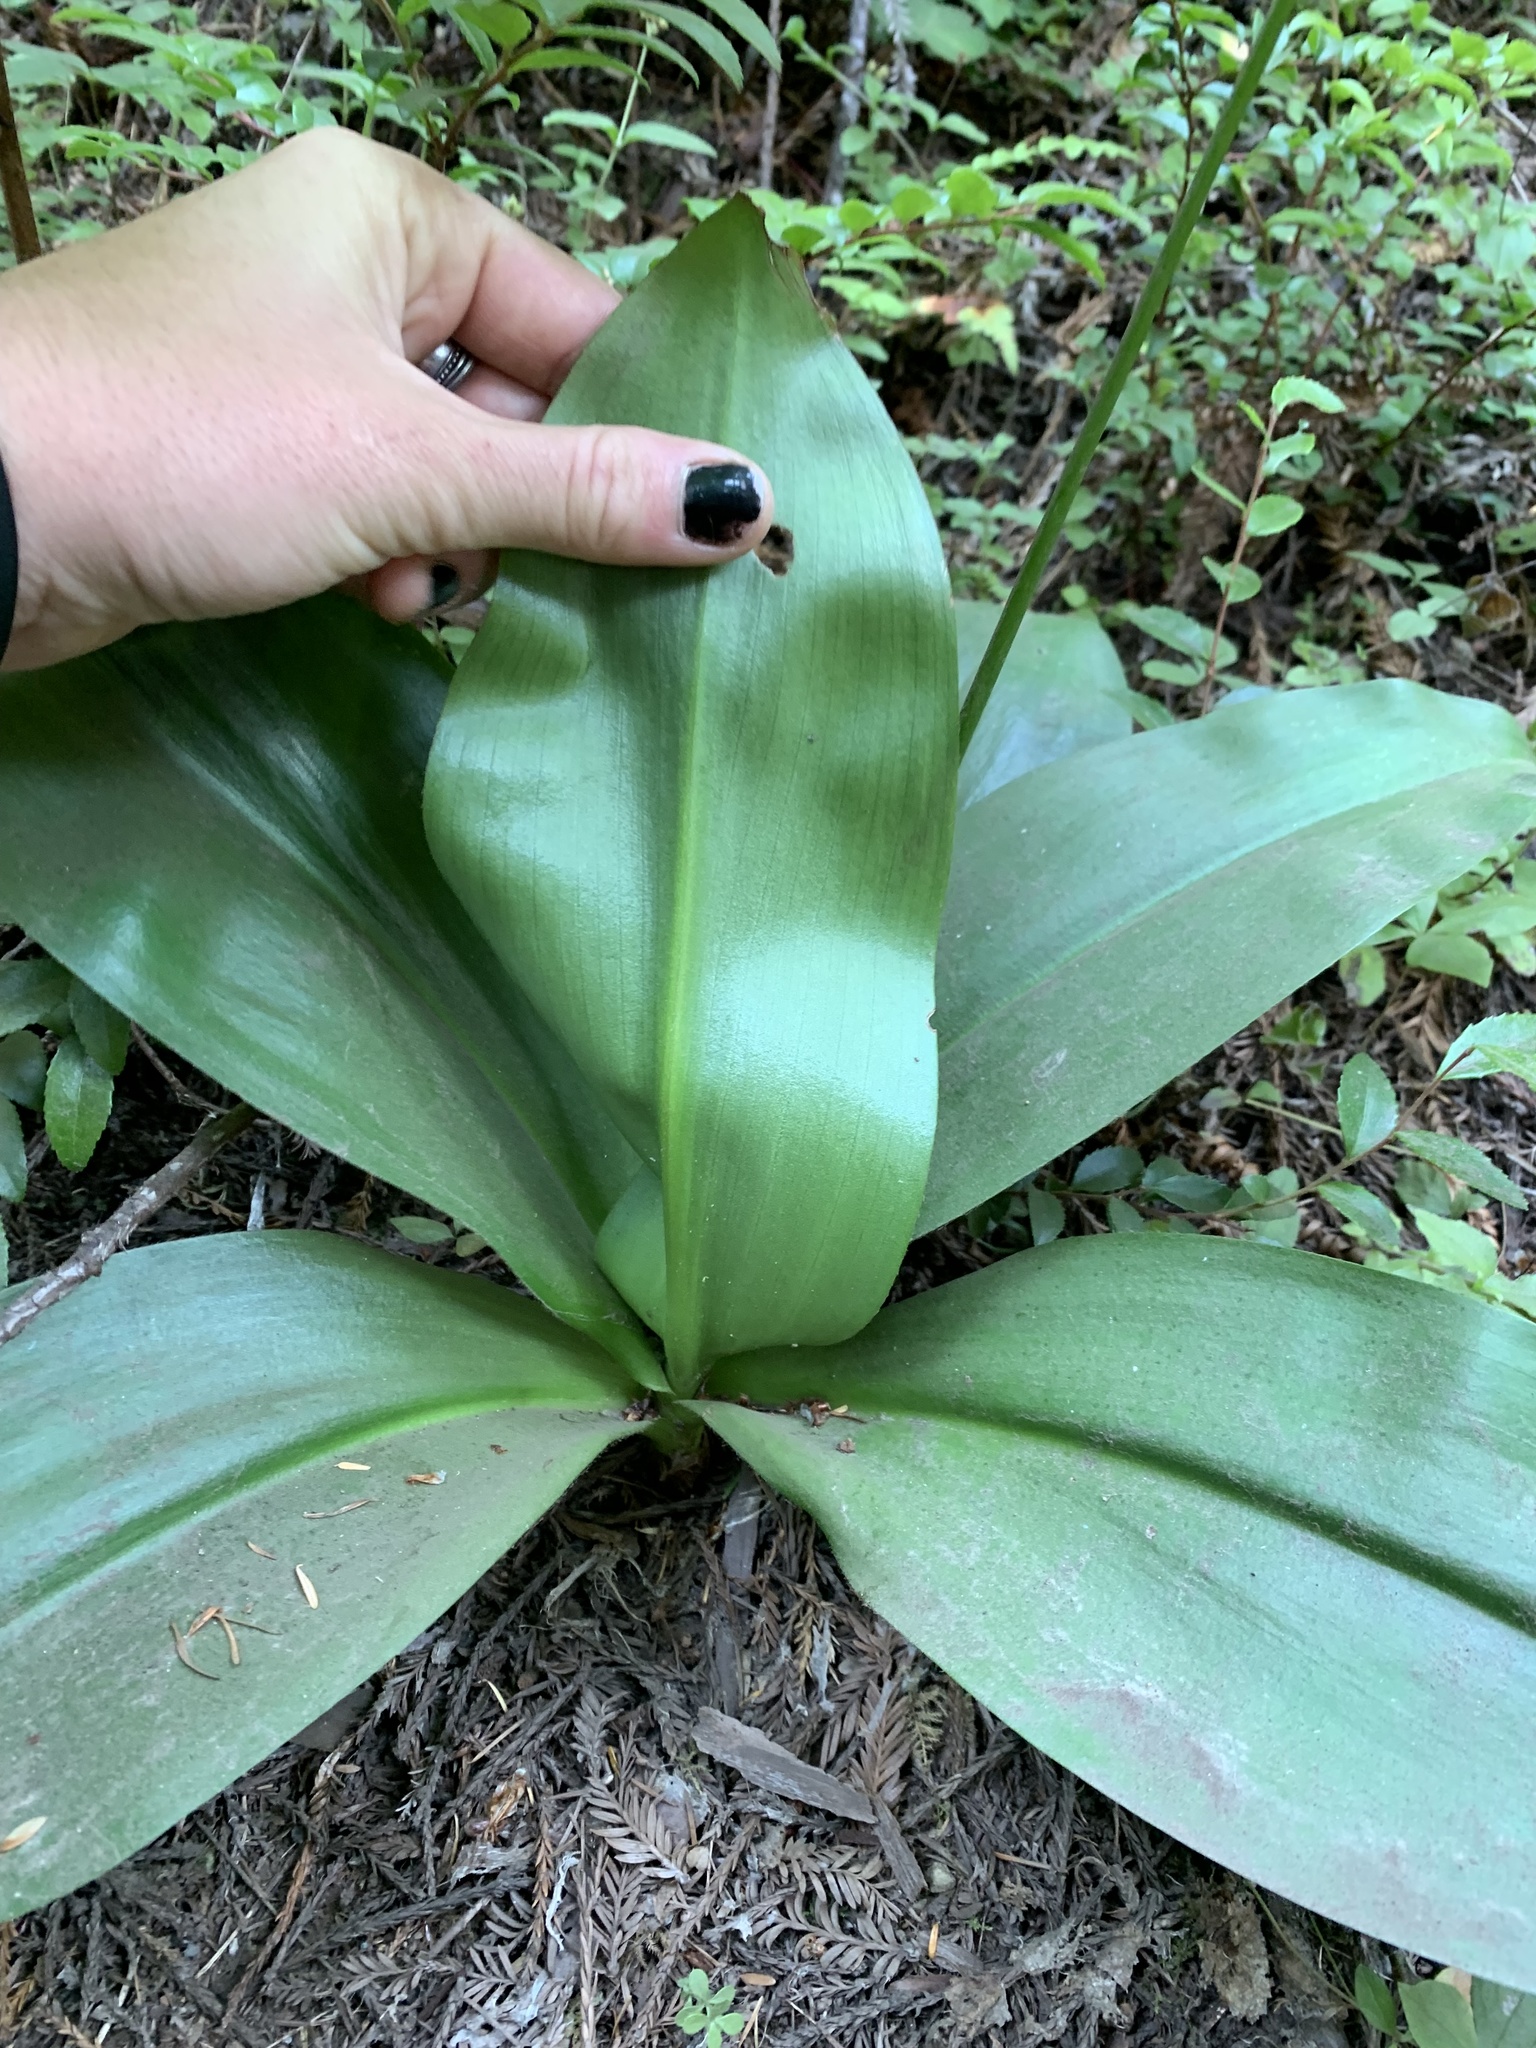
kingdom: Plantae
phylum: Tracheophyta
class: Liliopsida
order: Liliales
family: Liliaceae
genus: Clintonia
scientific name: Clintonia andrewsiana
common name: Red clintonia
